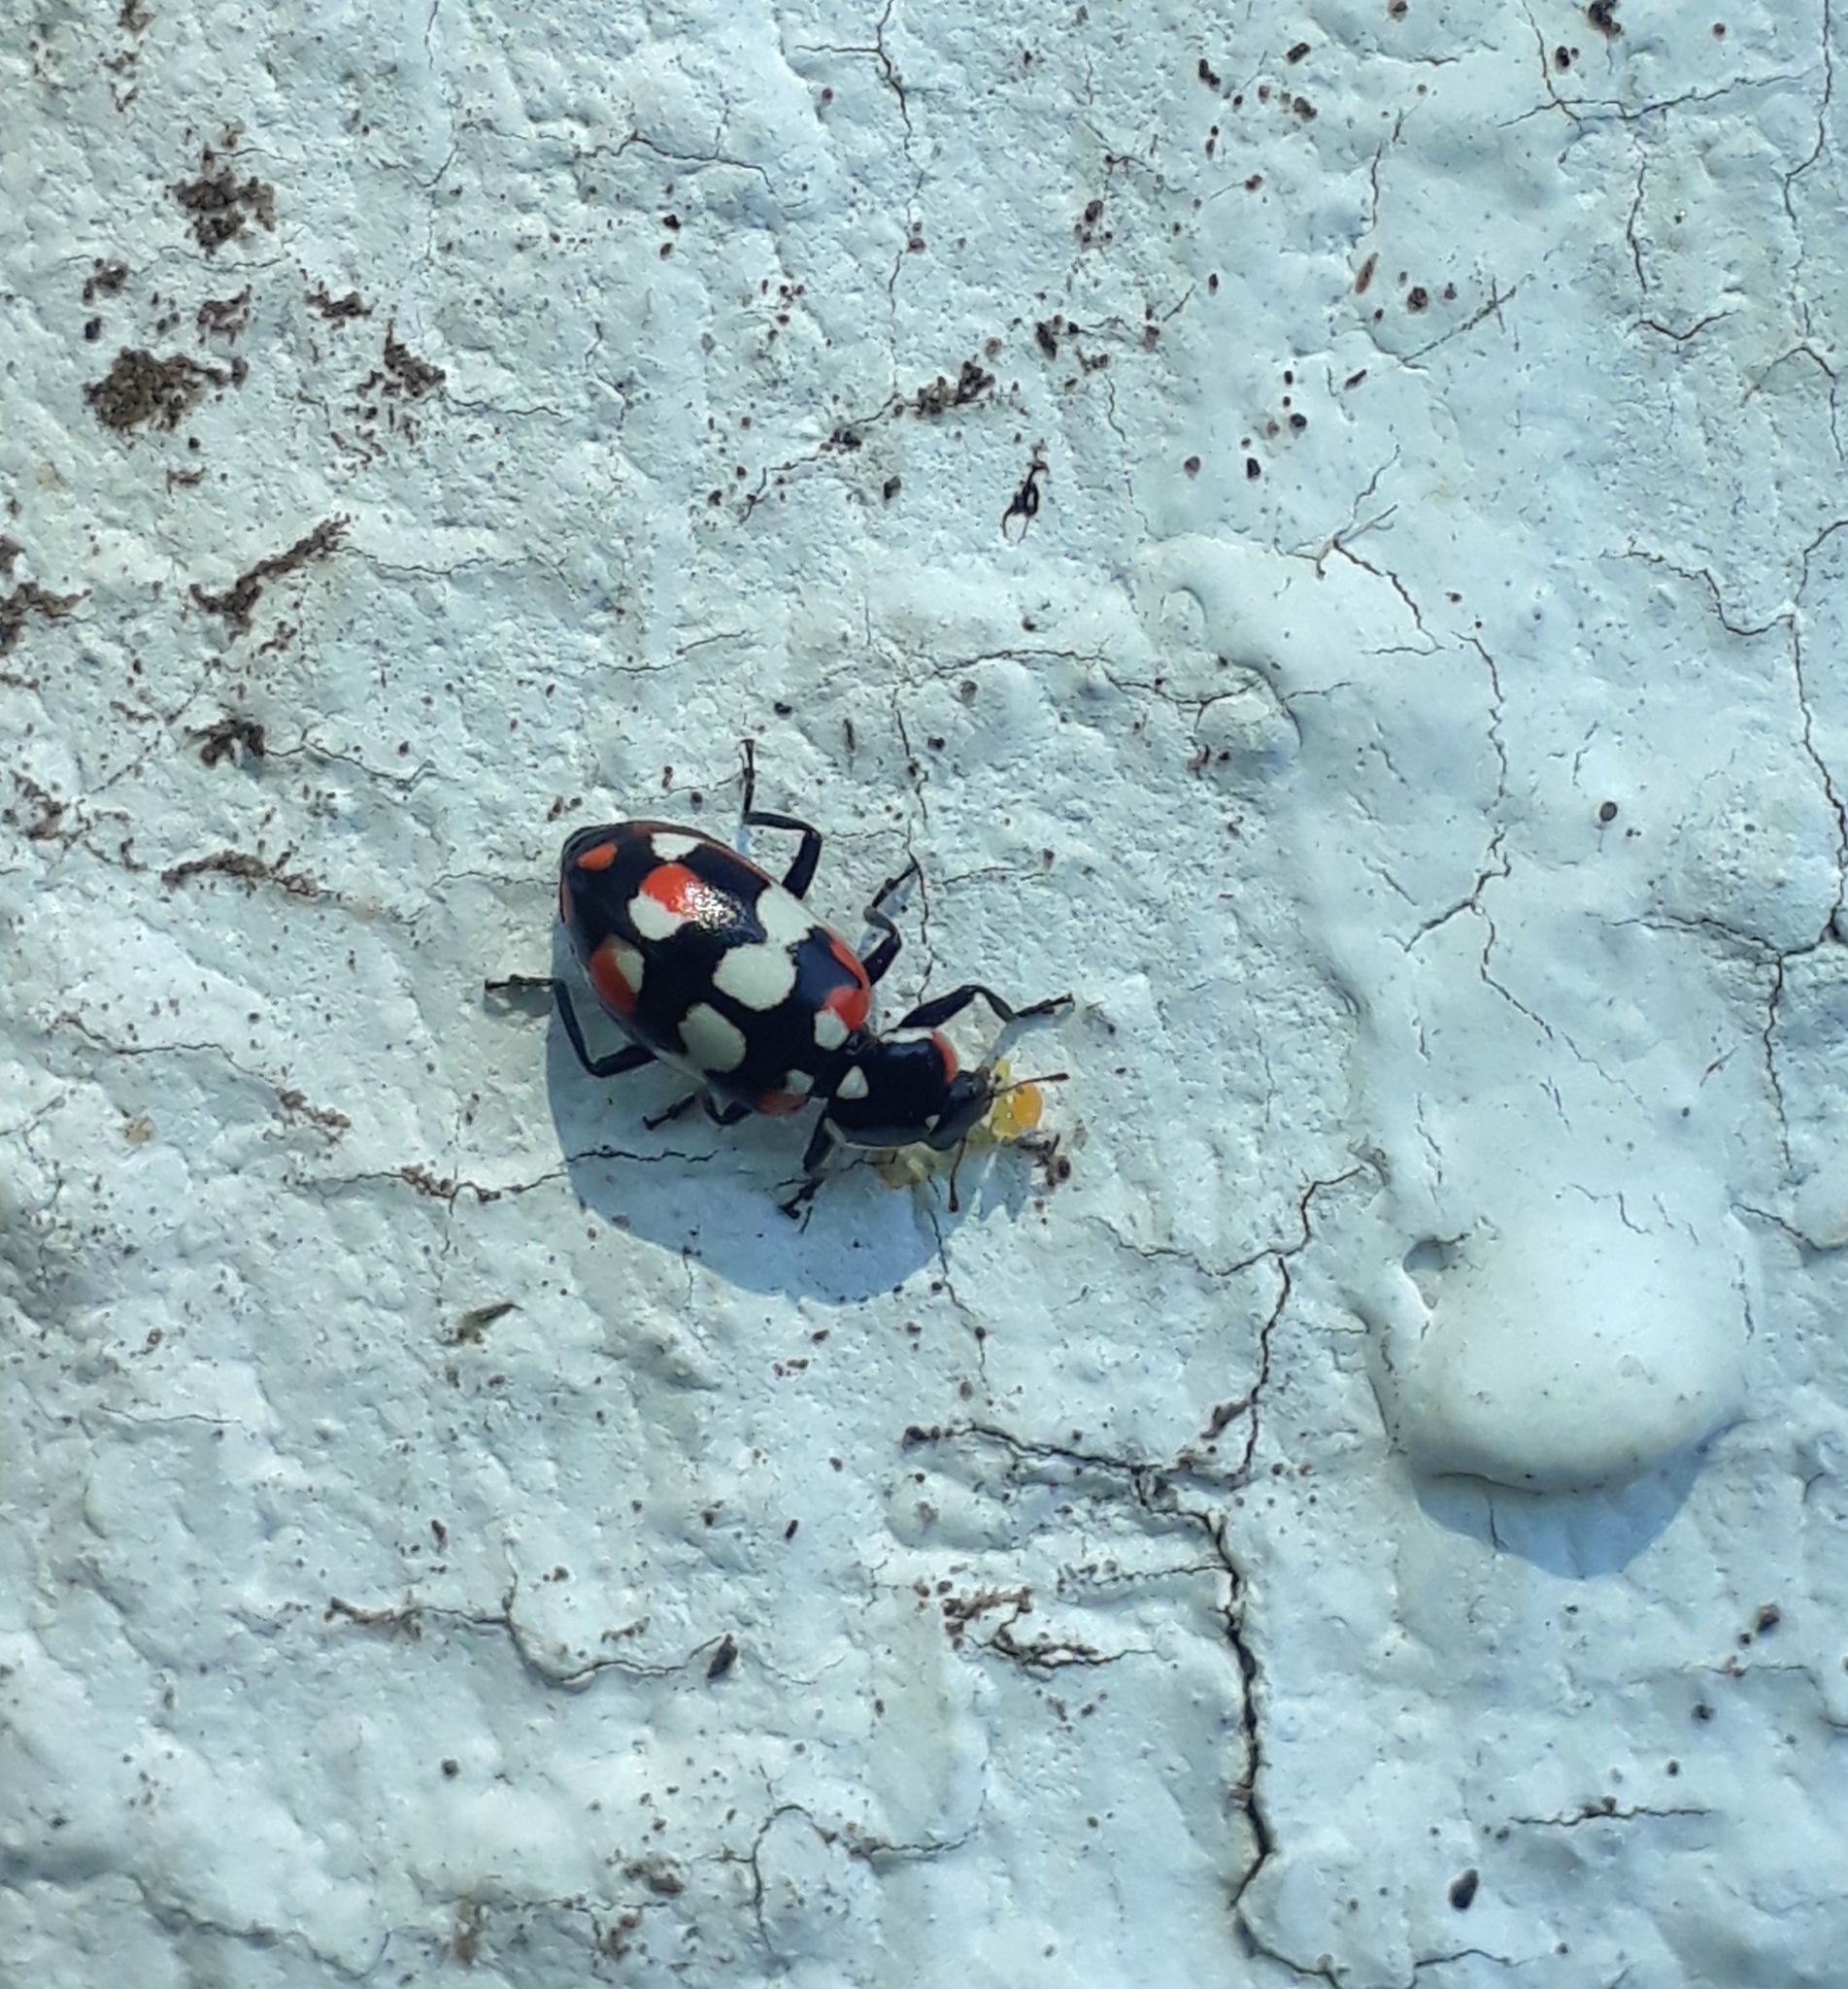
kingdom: Animalia
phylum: Arthropoda
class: Insecta
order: Coleoptera
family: Coccinellidae
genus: Eriopis
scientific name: Eriopis connexa
